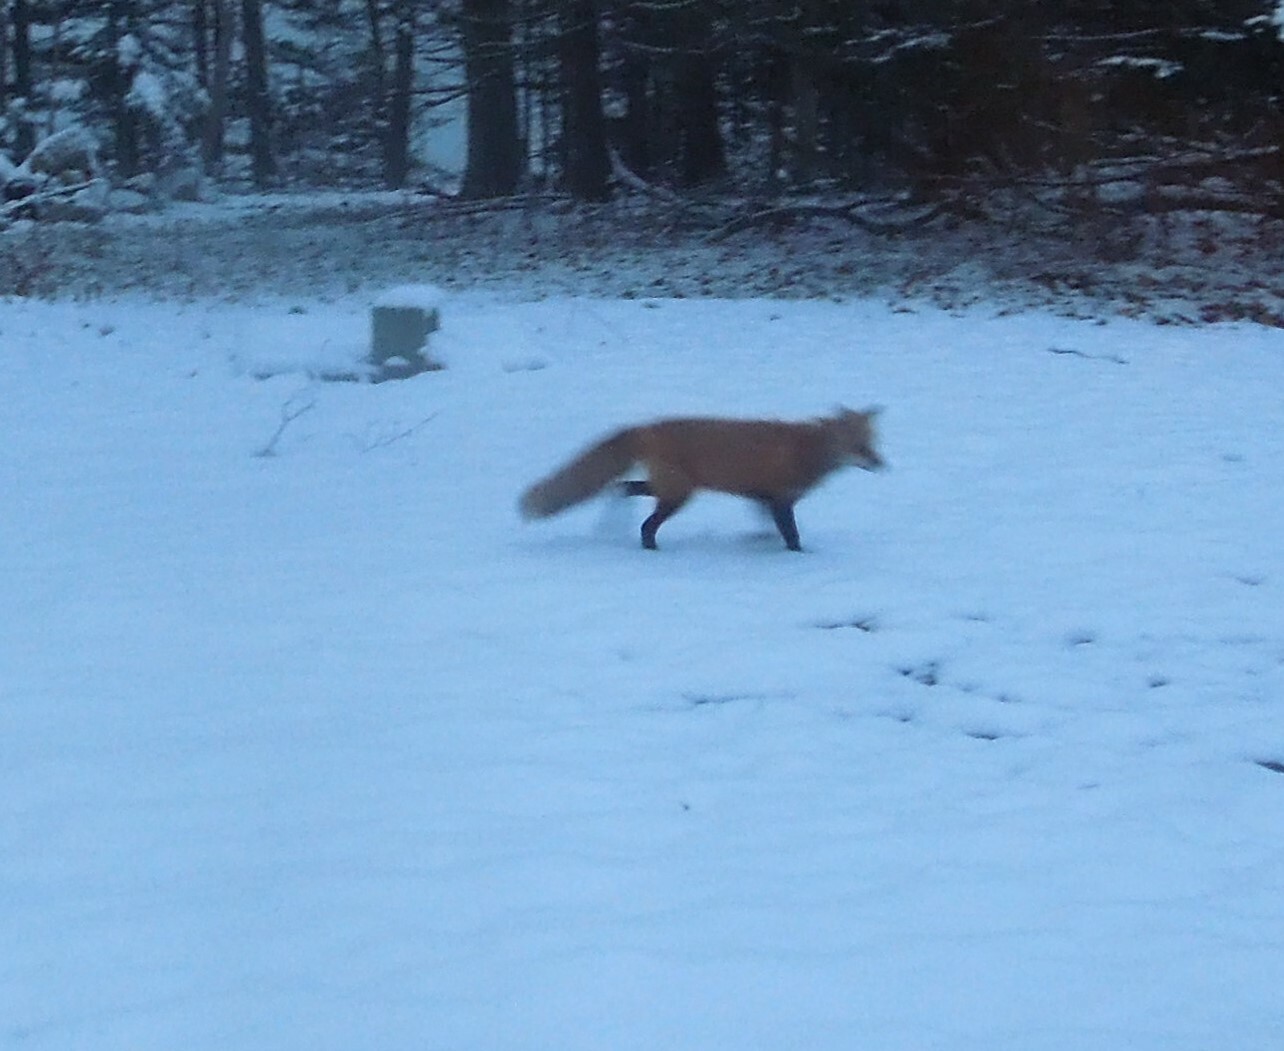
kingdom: Animalia
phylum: Chordata
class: Mammalia
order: Carnivora
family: Canidae
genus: Vulpes
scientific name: Vulpes vulpes
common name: Red fox
